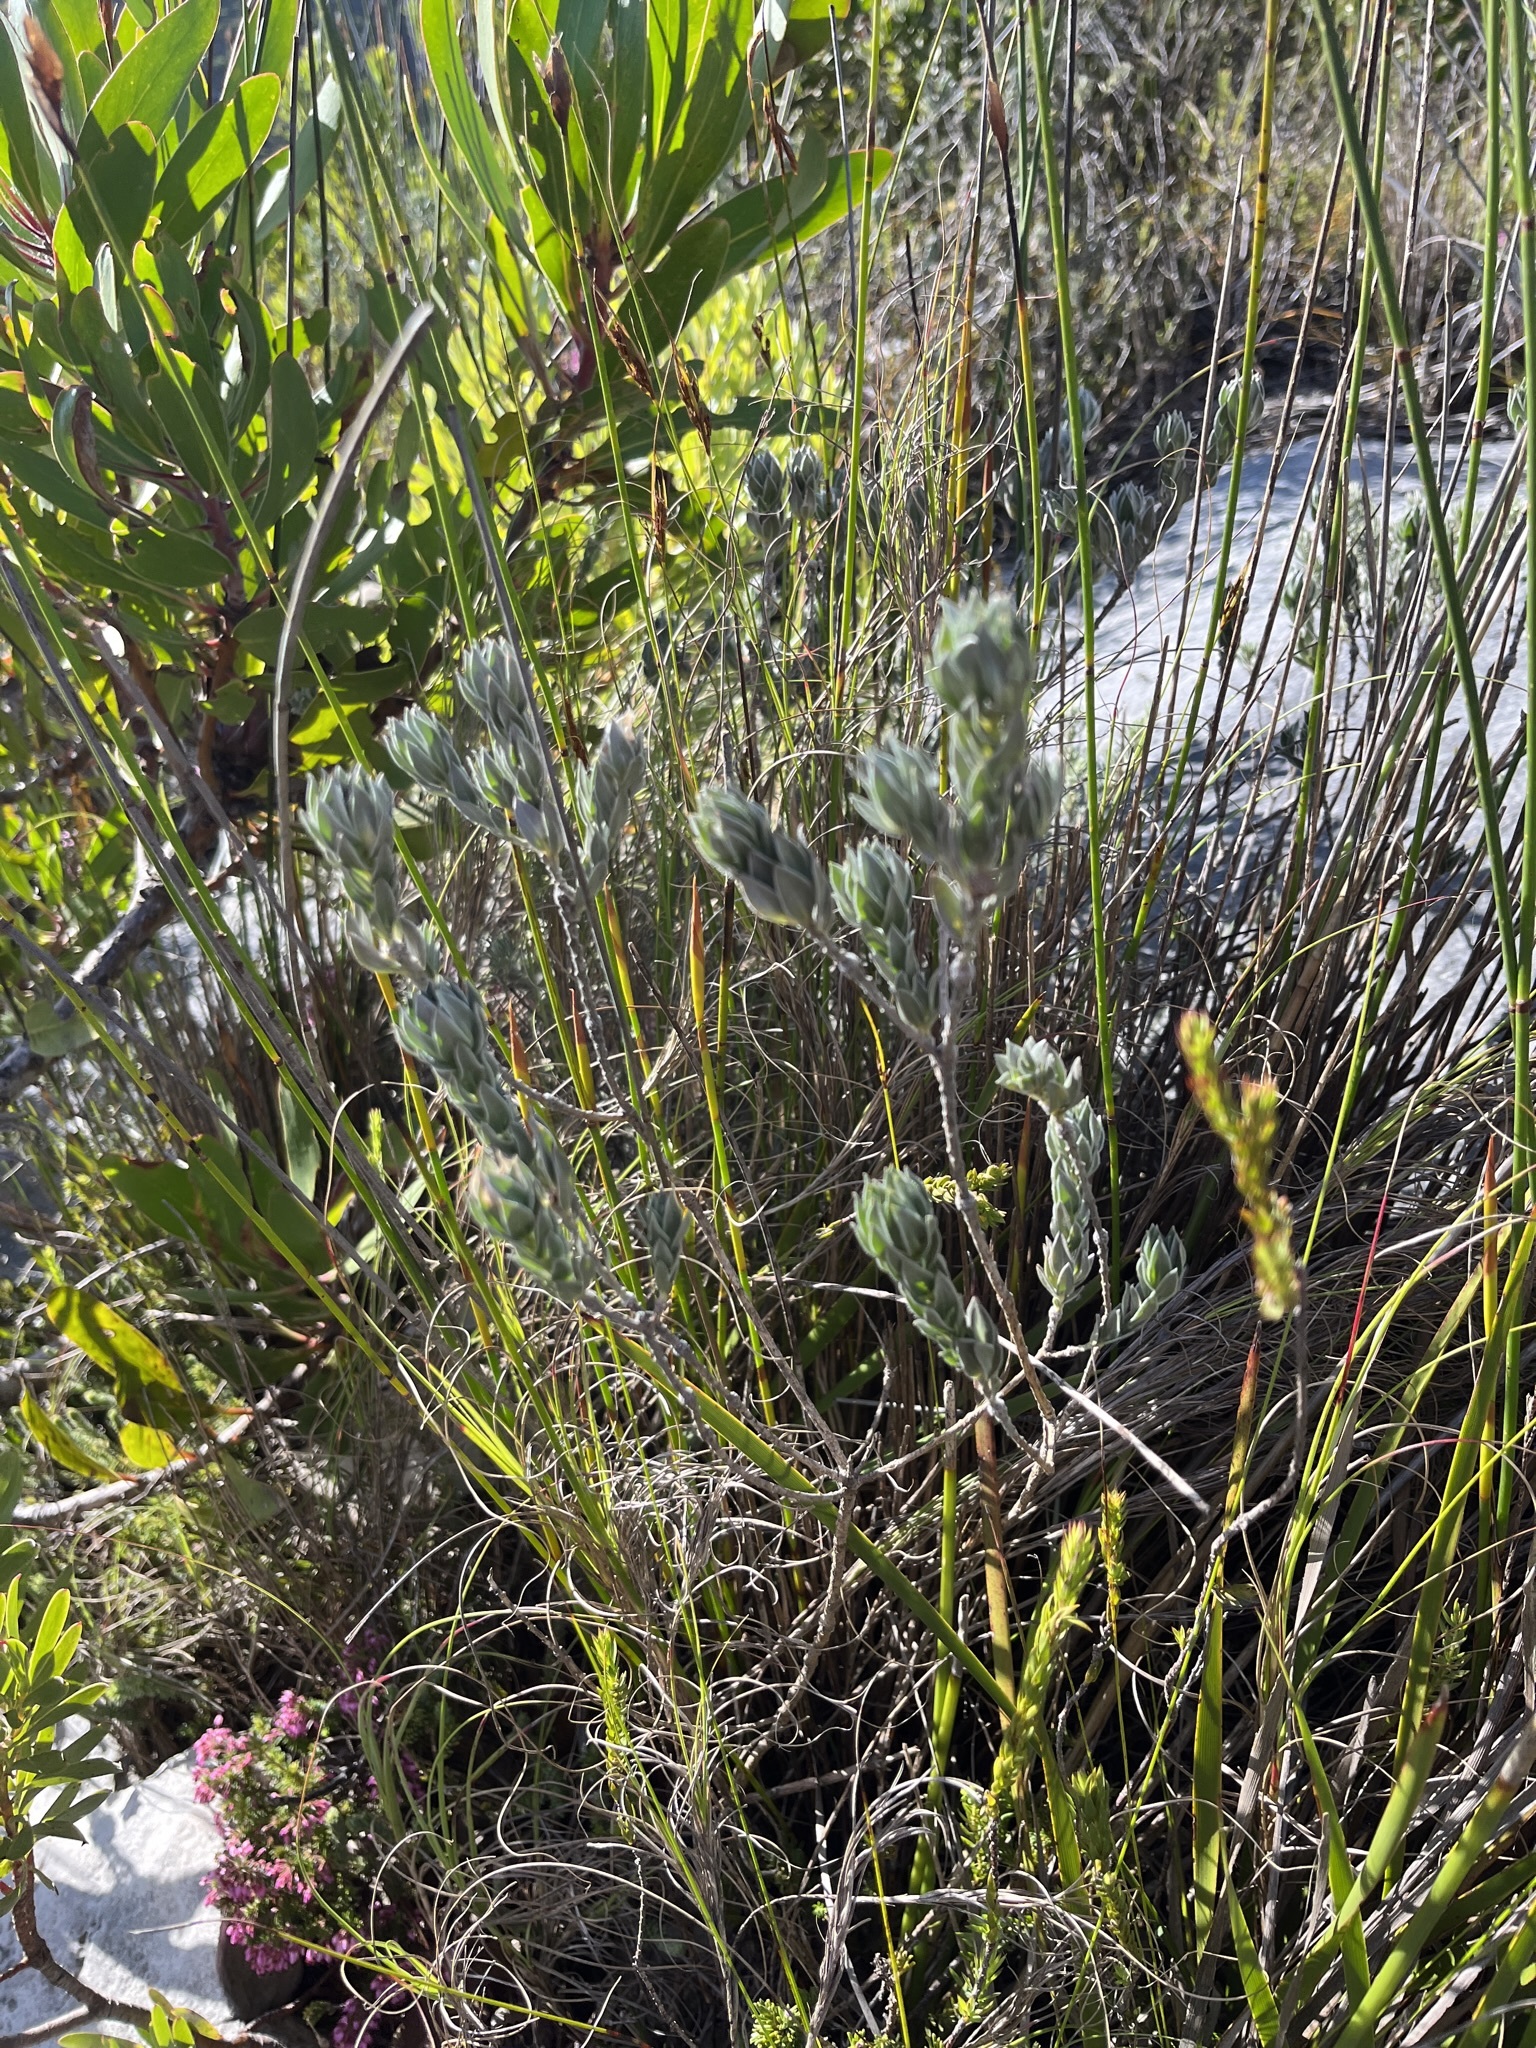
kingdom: Plantae
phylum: Tracheophyta
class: Magnoliopsida
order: Fabales
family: Fabaceae
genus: Amphithalea
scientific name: Amphithalea tomentosa
